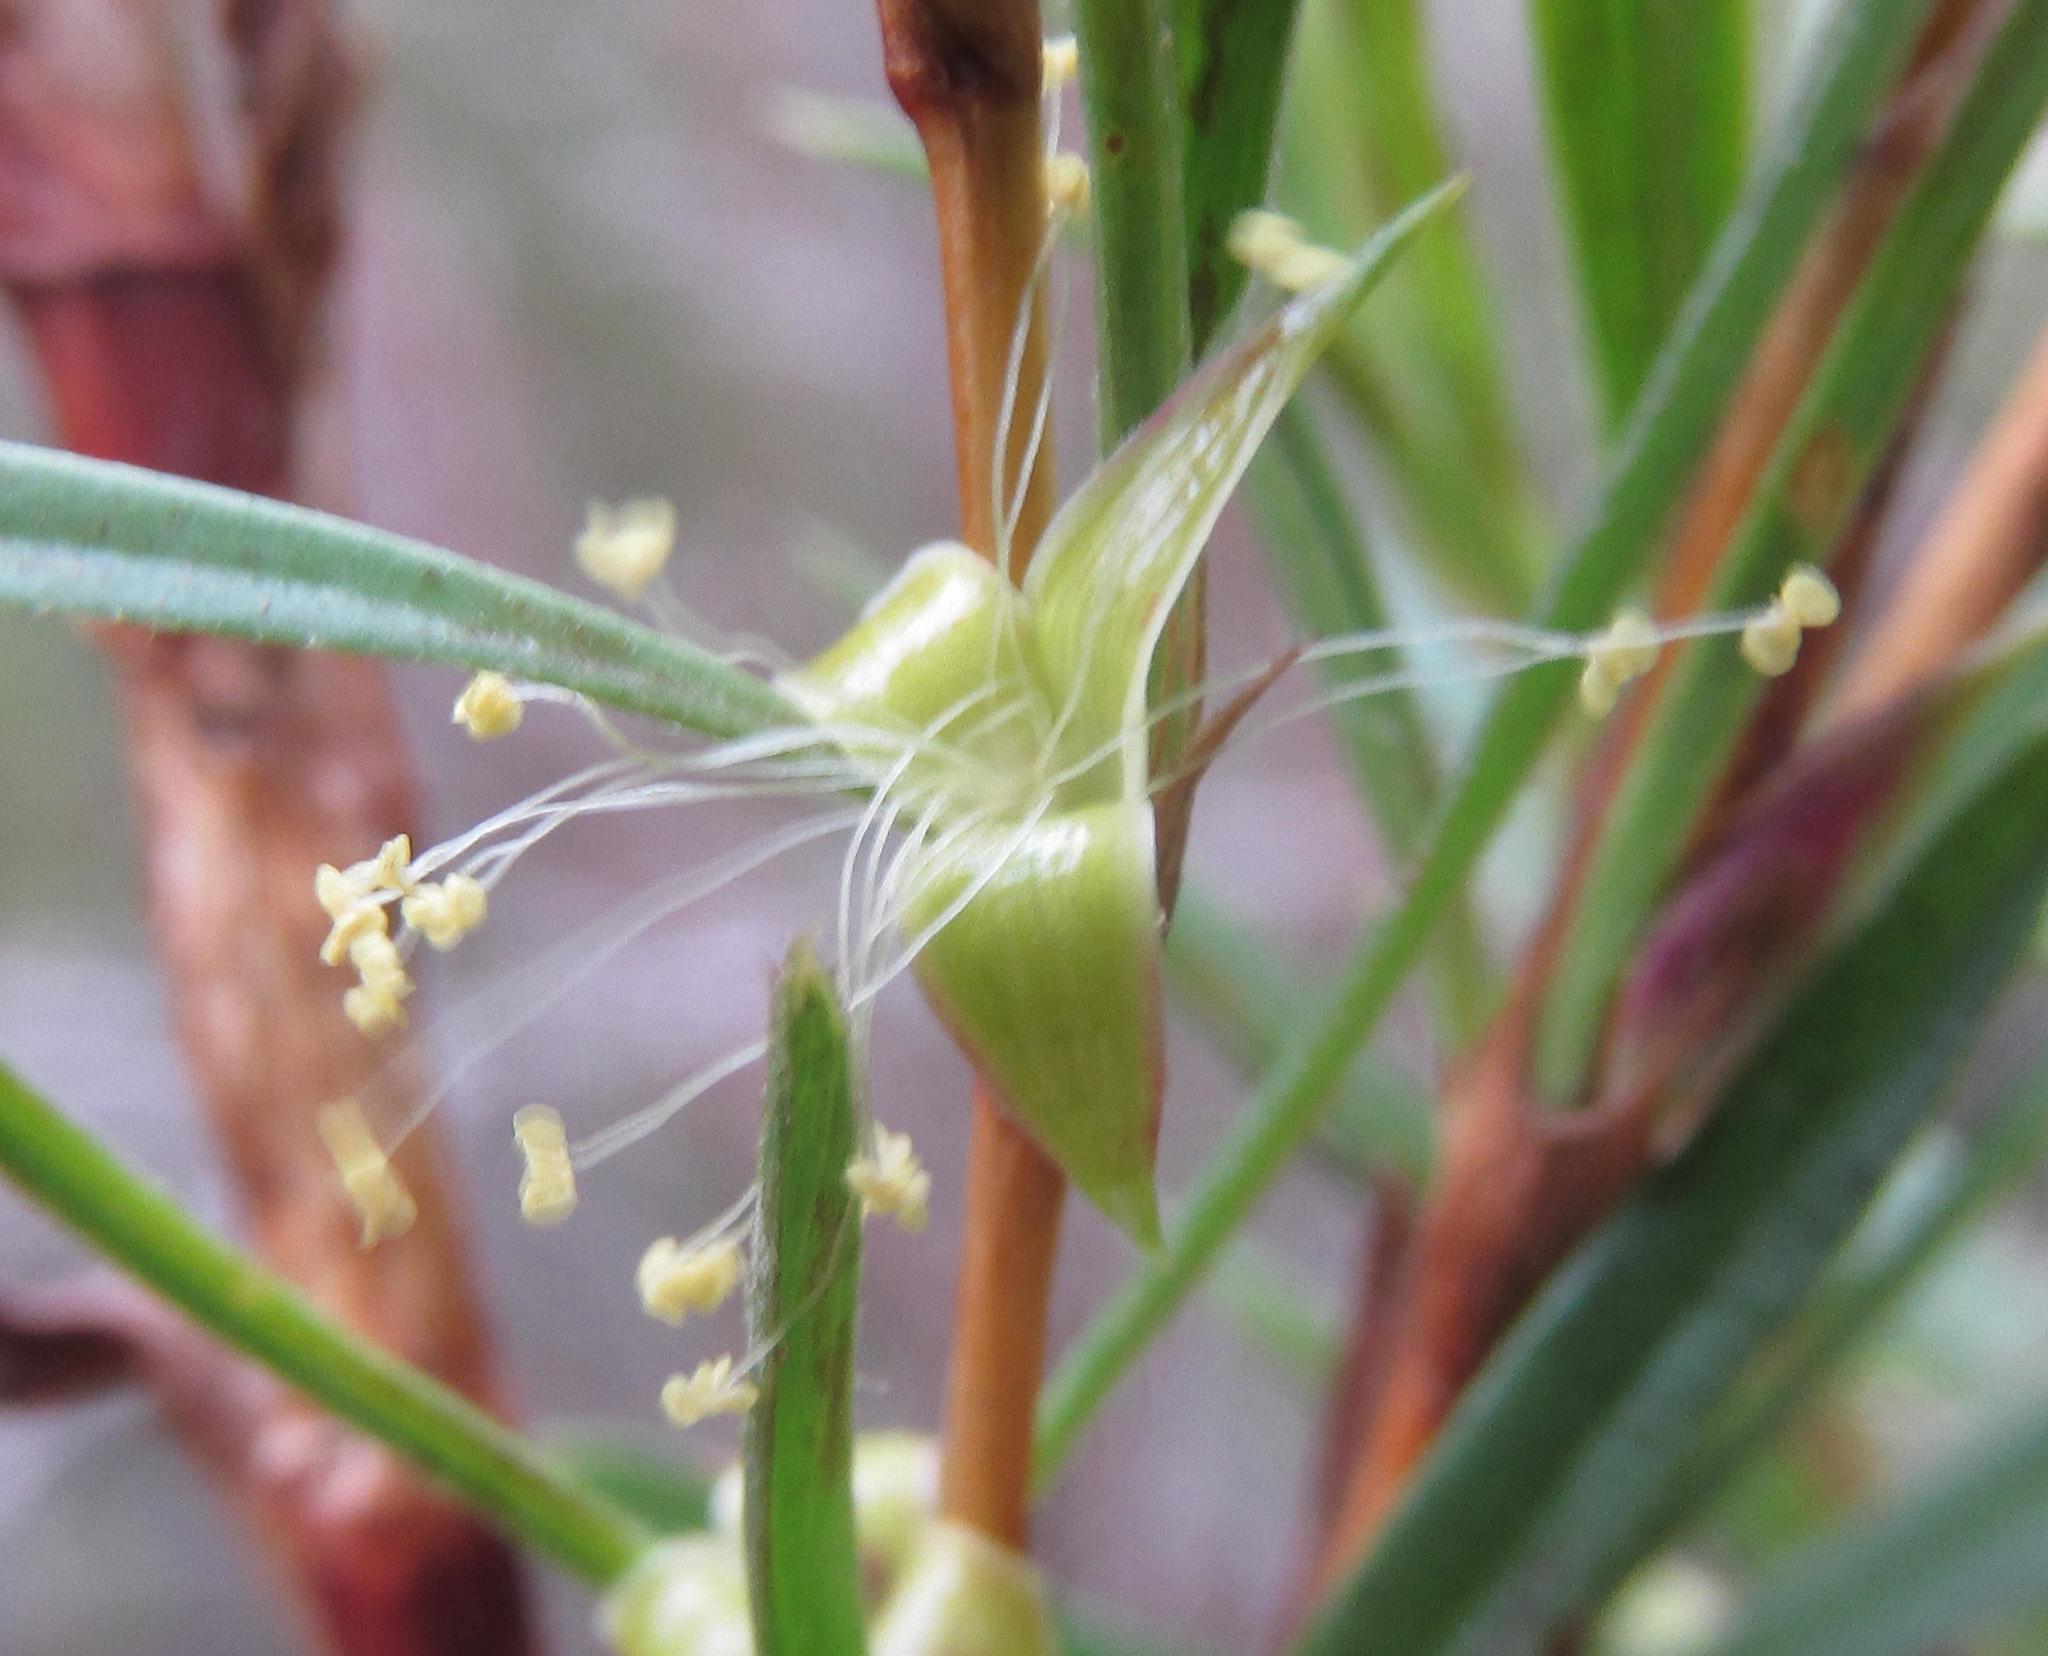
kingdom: Plantae
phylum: Tracheophyta
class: Magnoliopsida
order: Rosales
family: Rosaceae
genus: Cliffortia
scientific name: Cliffortia strobilifera
